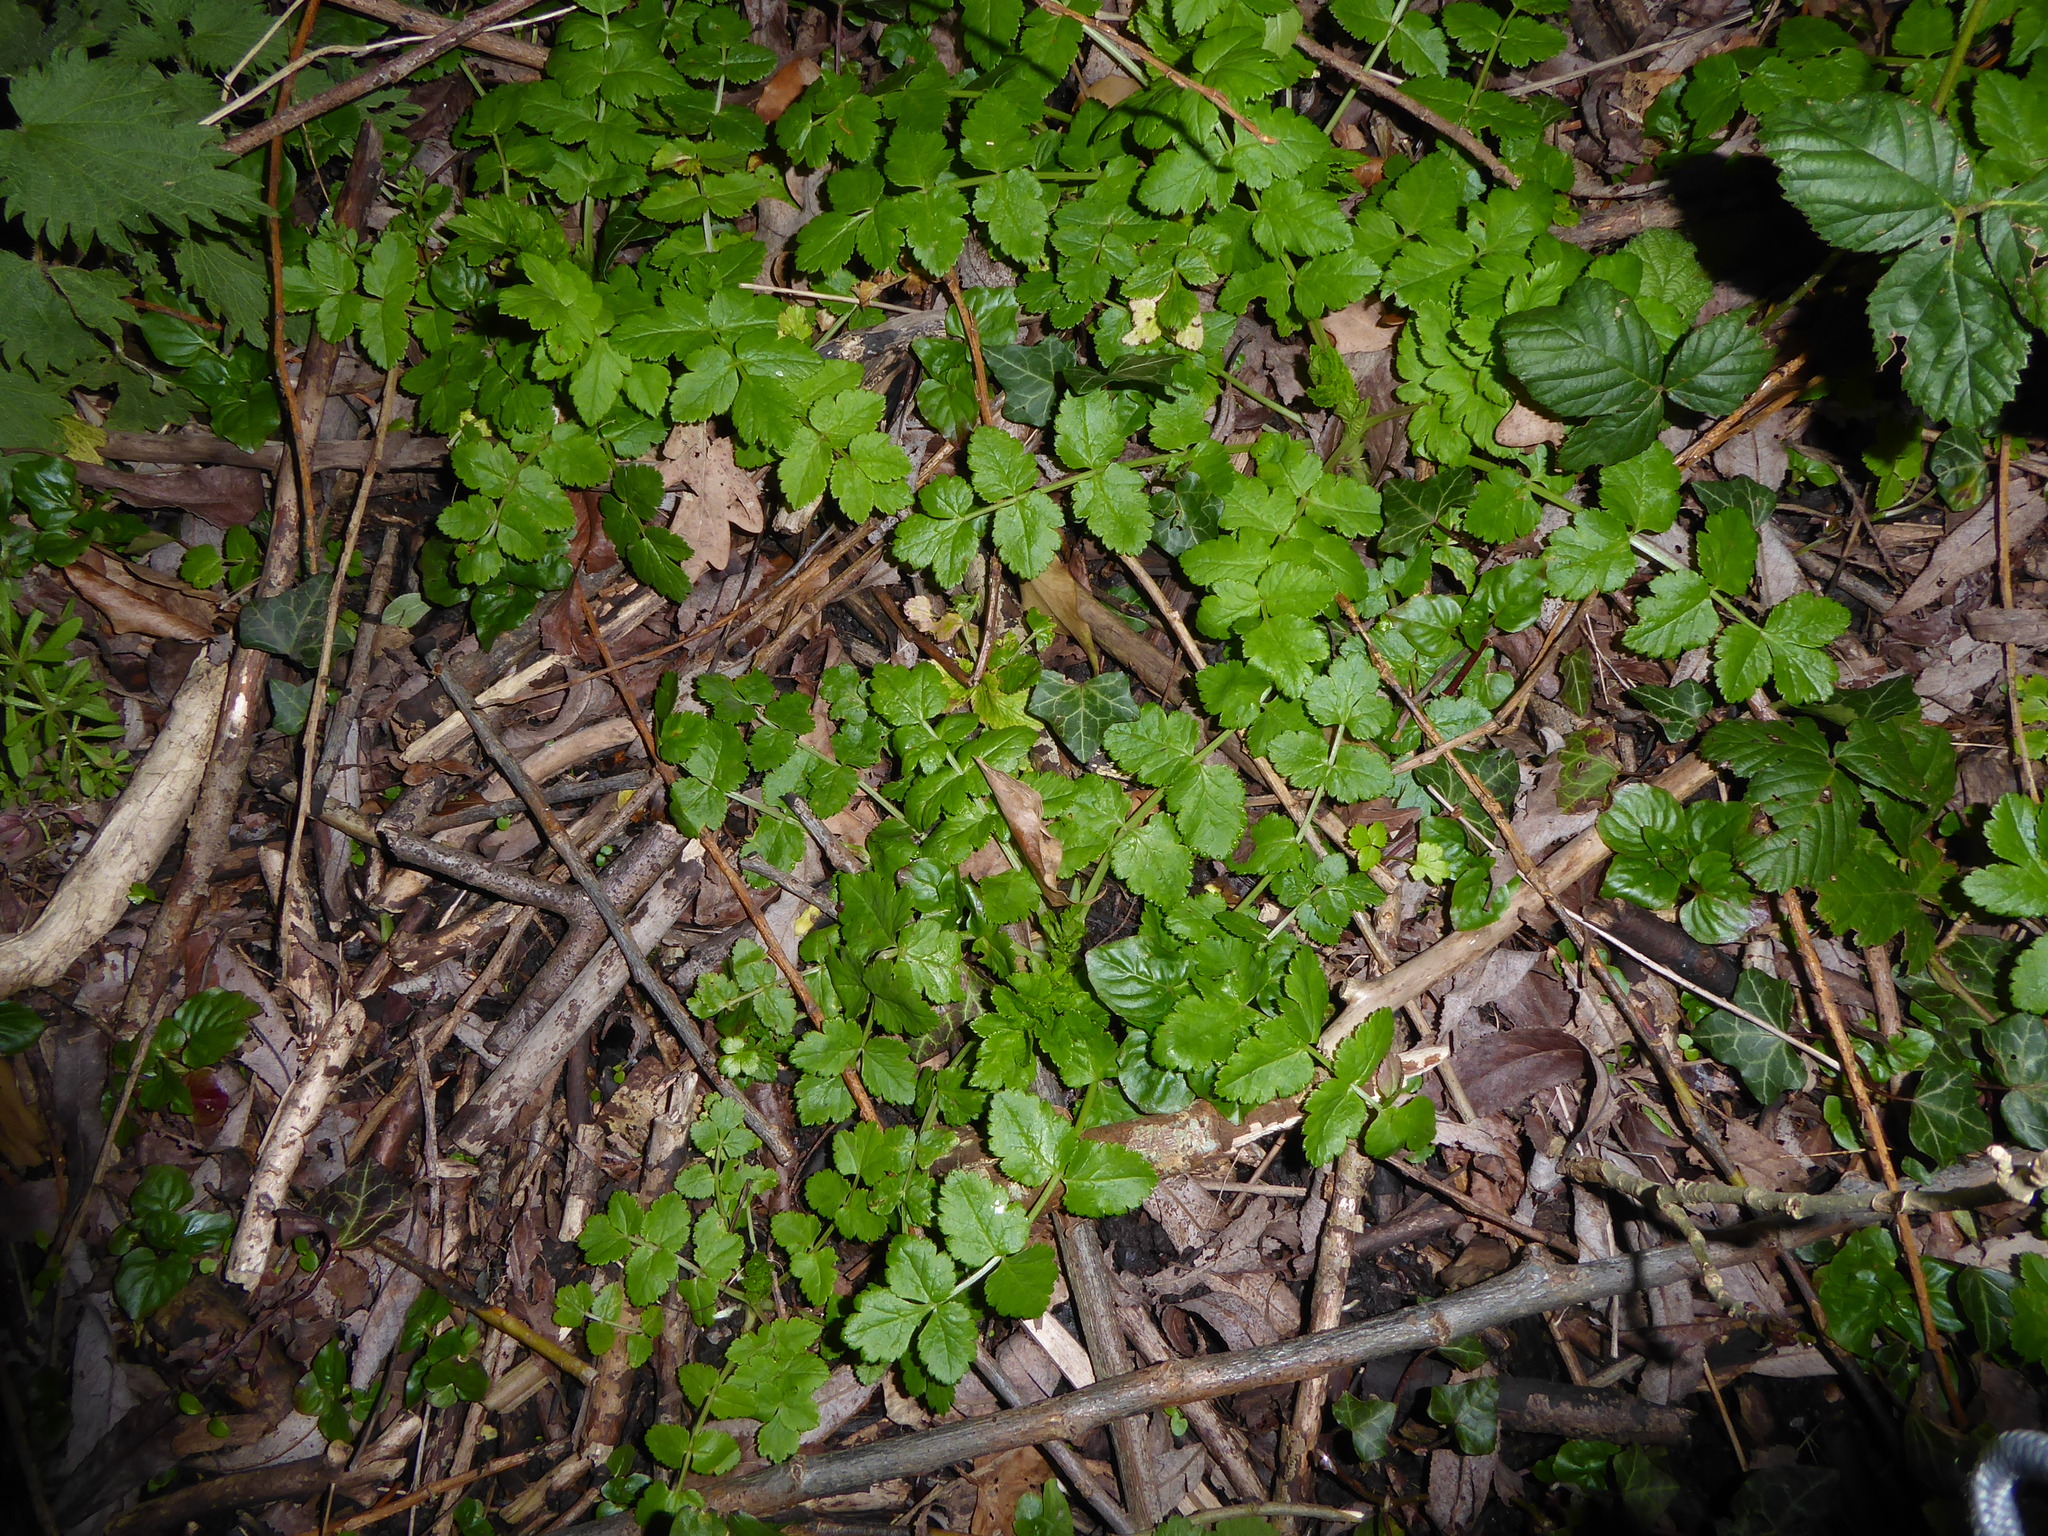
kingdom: Plantae
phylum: Tracheophyta
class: Magnoliopsida
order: Apiales
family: Apiaceae
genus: Sison
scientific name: Sison amomum
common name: Stone-parsley
